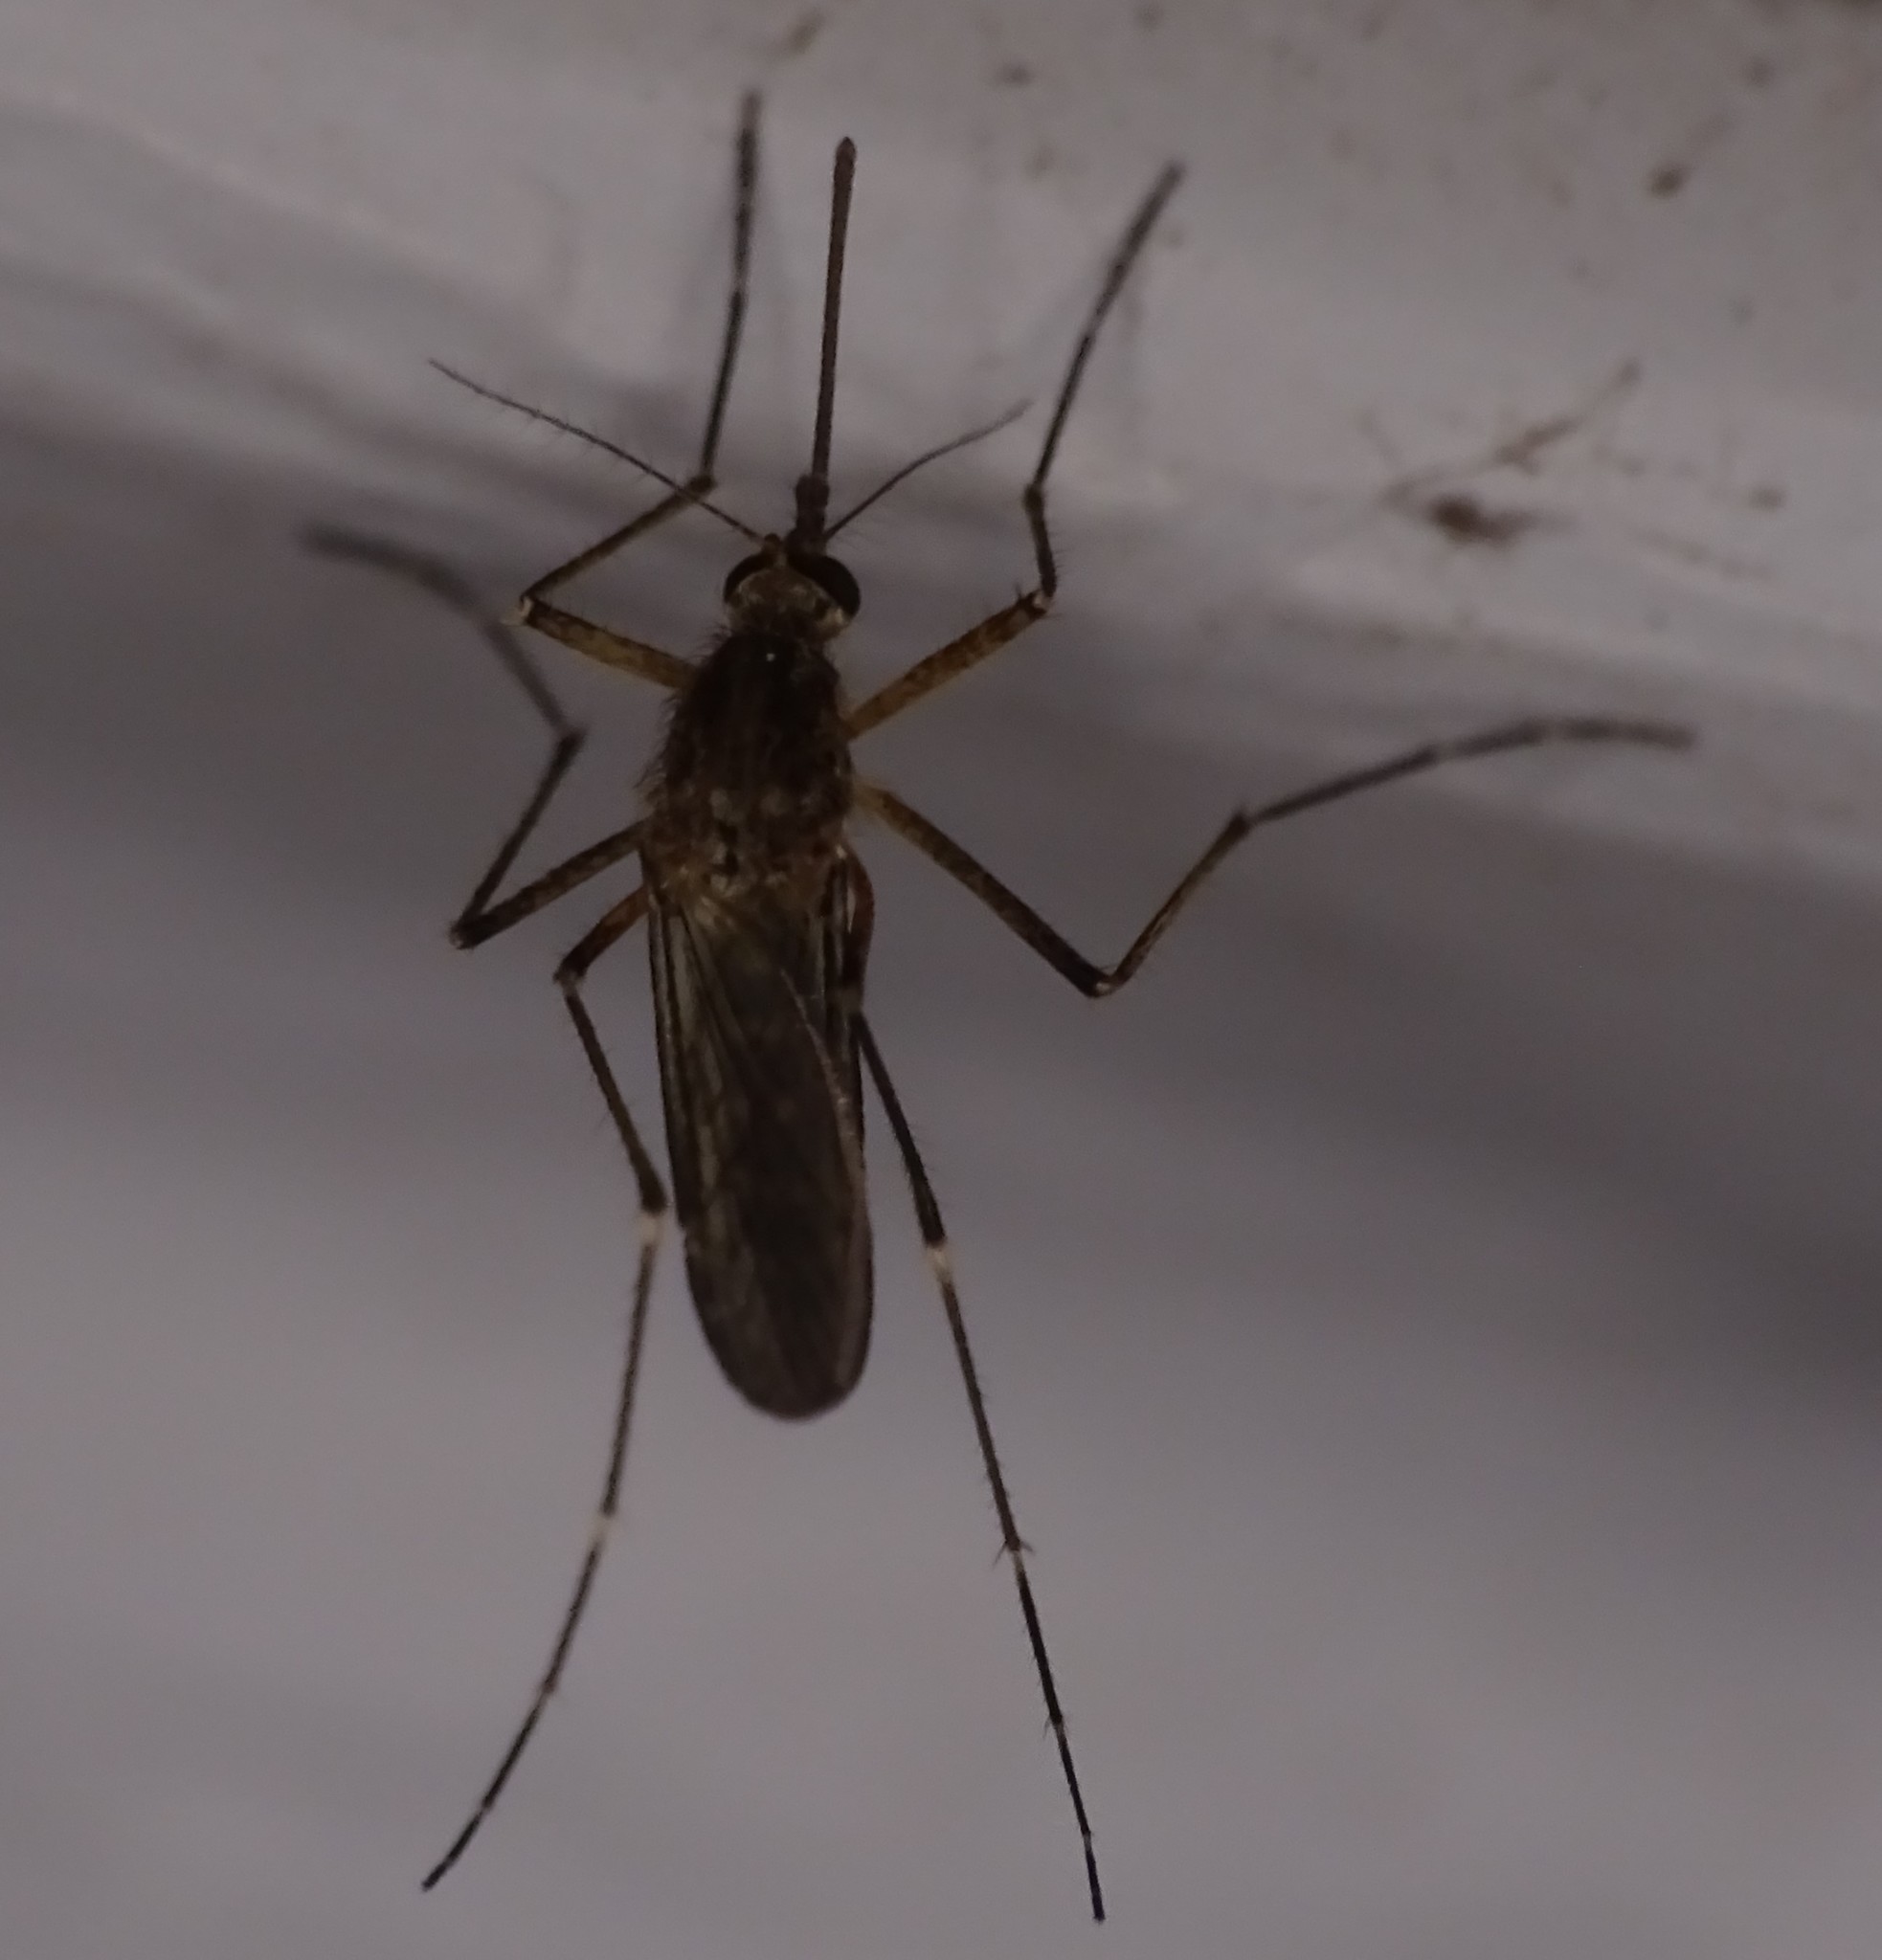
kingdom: Animalia
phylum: Arthropoda
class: Insecta
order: Diptera
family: Culicidae
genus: Aedes
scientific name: Aedes vexans
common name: Inland floodwater mosquito
